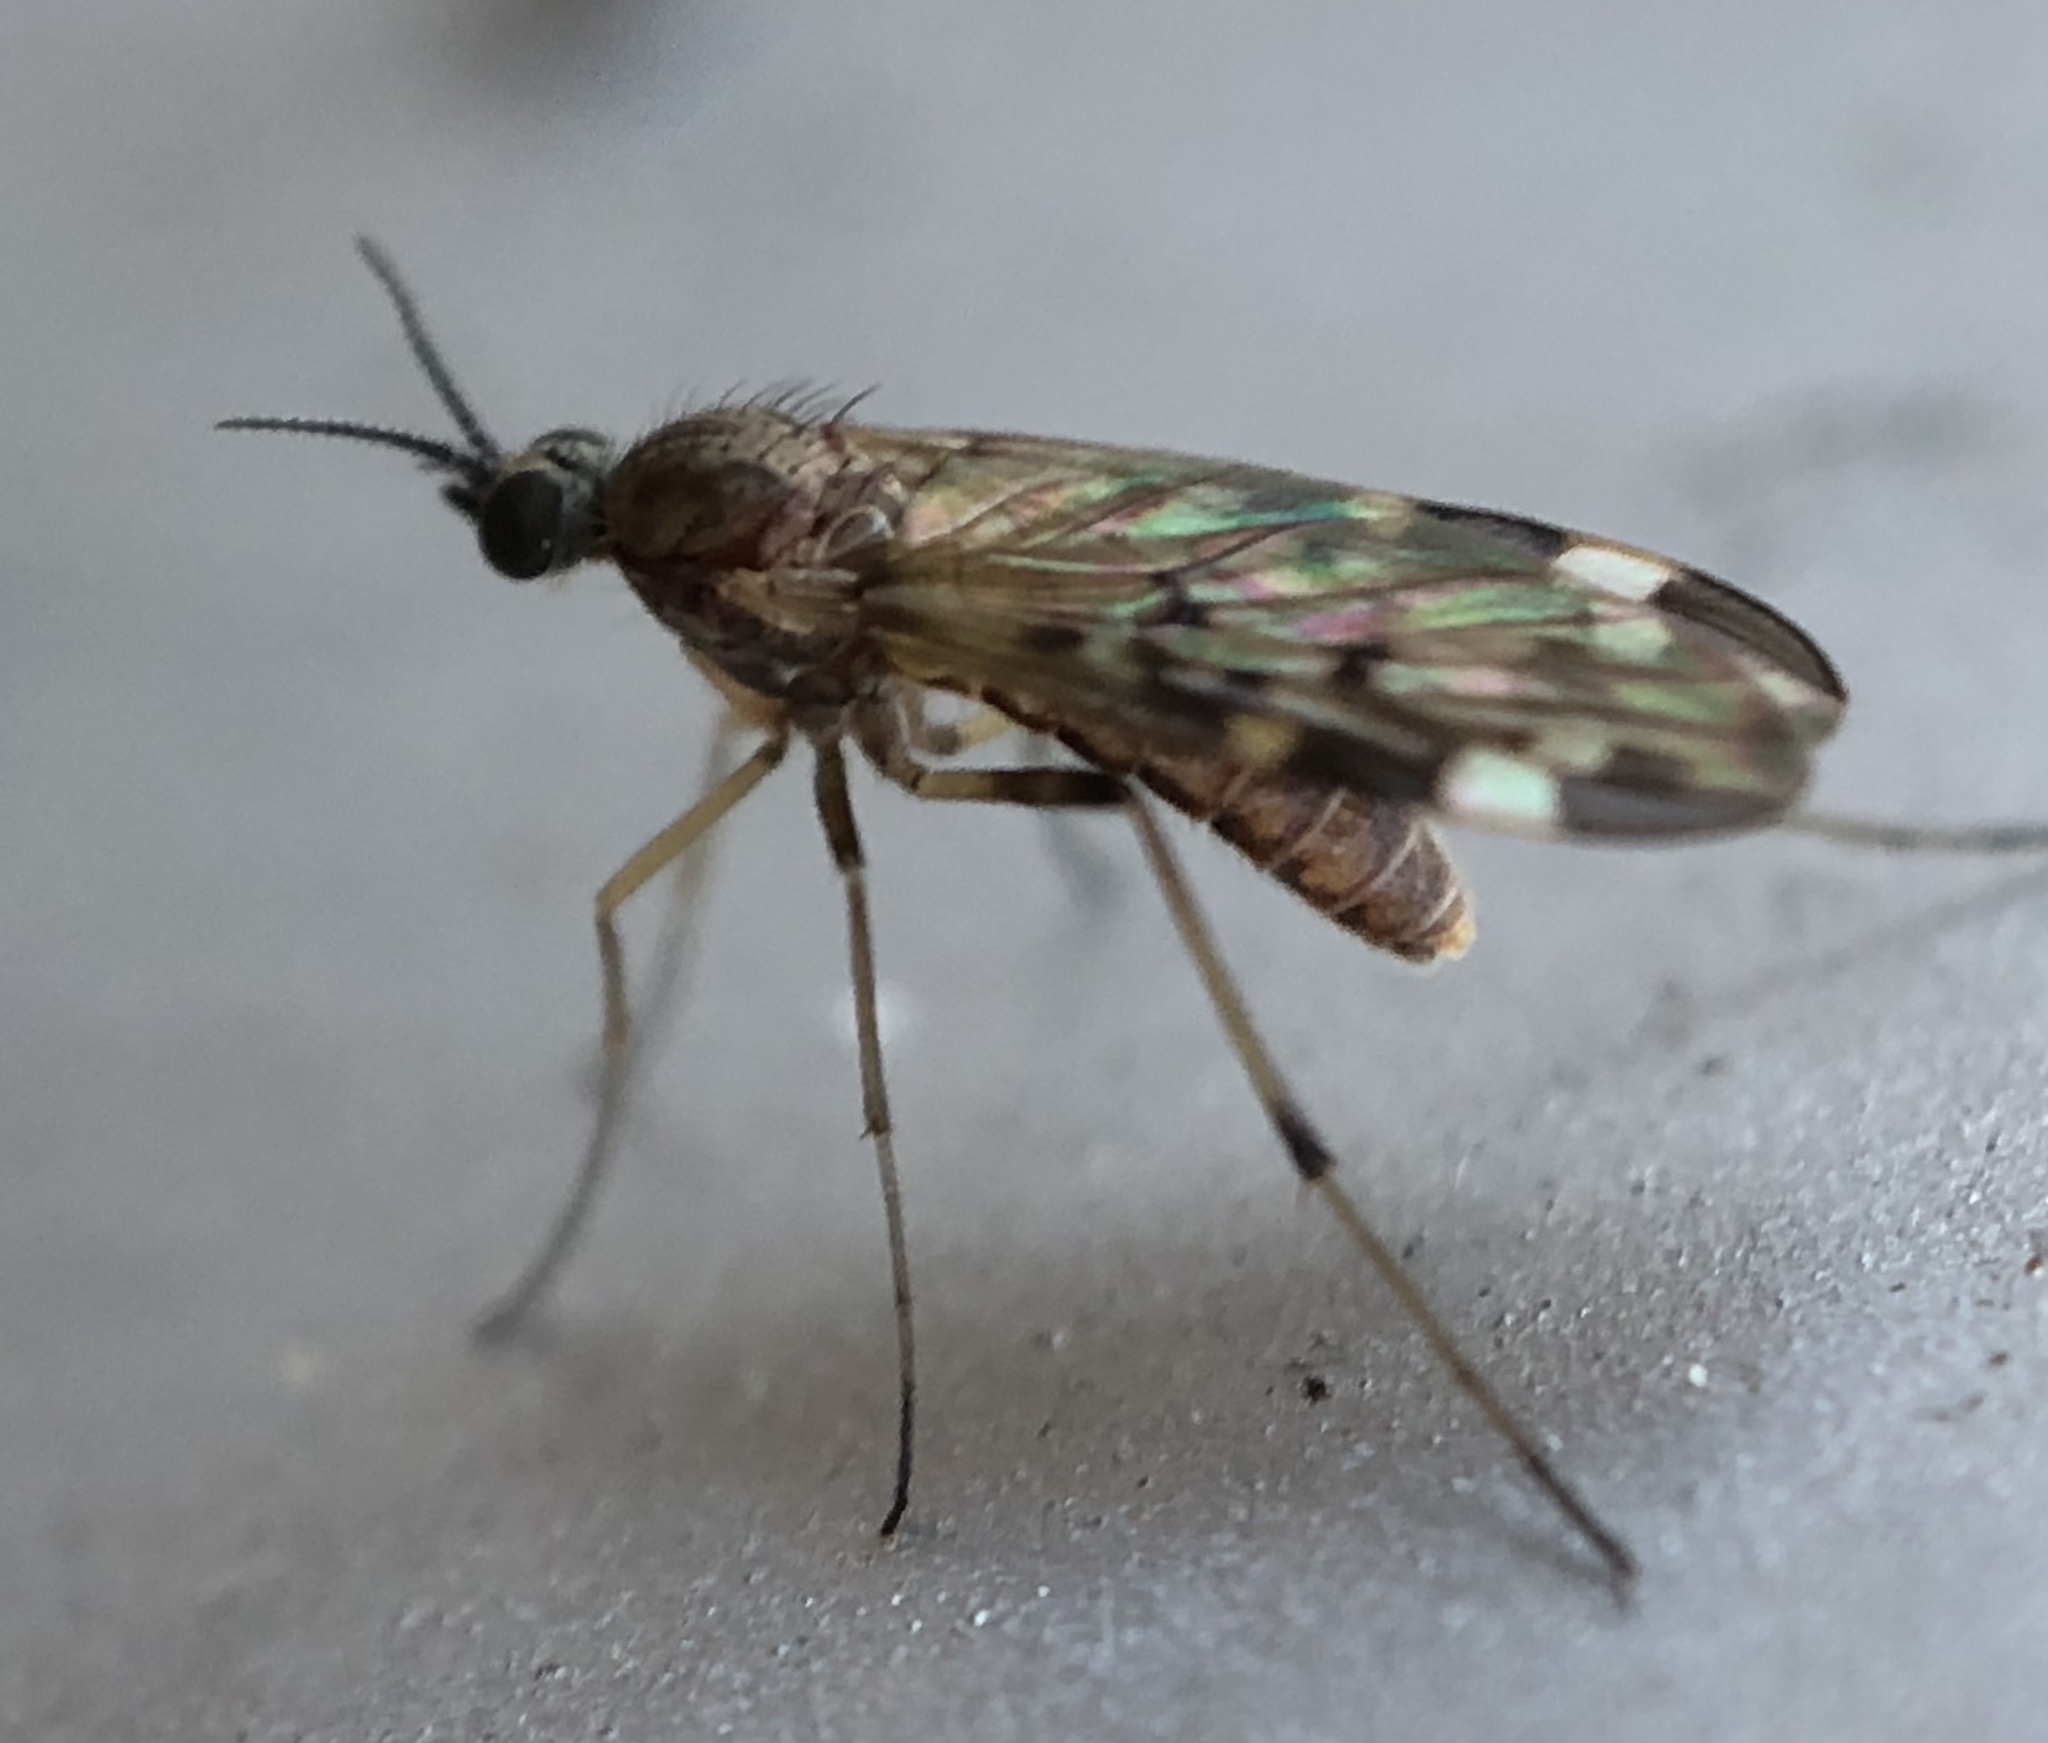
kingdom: Animalia
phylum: Arthropoda
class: Insecta
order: Diptera
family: Anisopodidae
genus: Sylvicola
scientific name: Sylvicola alternata
